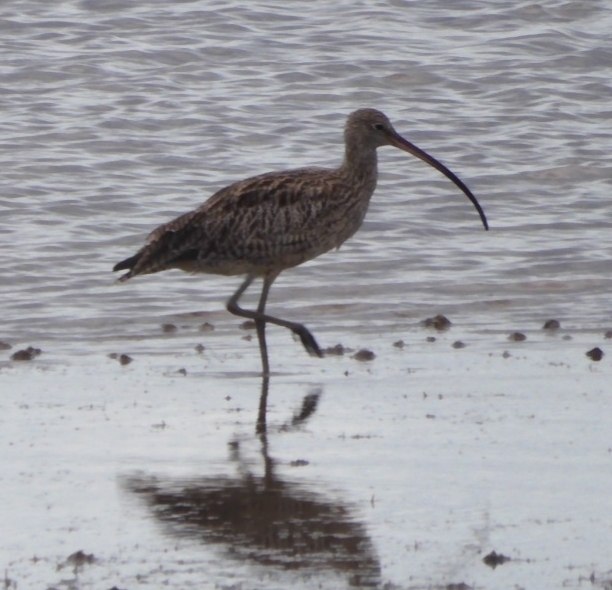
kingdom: Animalia
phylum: Chordata
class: Aves
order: Charadriiformes
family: Scolopacidae
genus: Numenius
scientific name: Numenius madagascariensis
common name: Far eastern curlew
